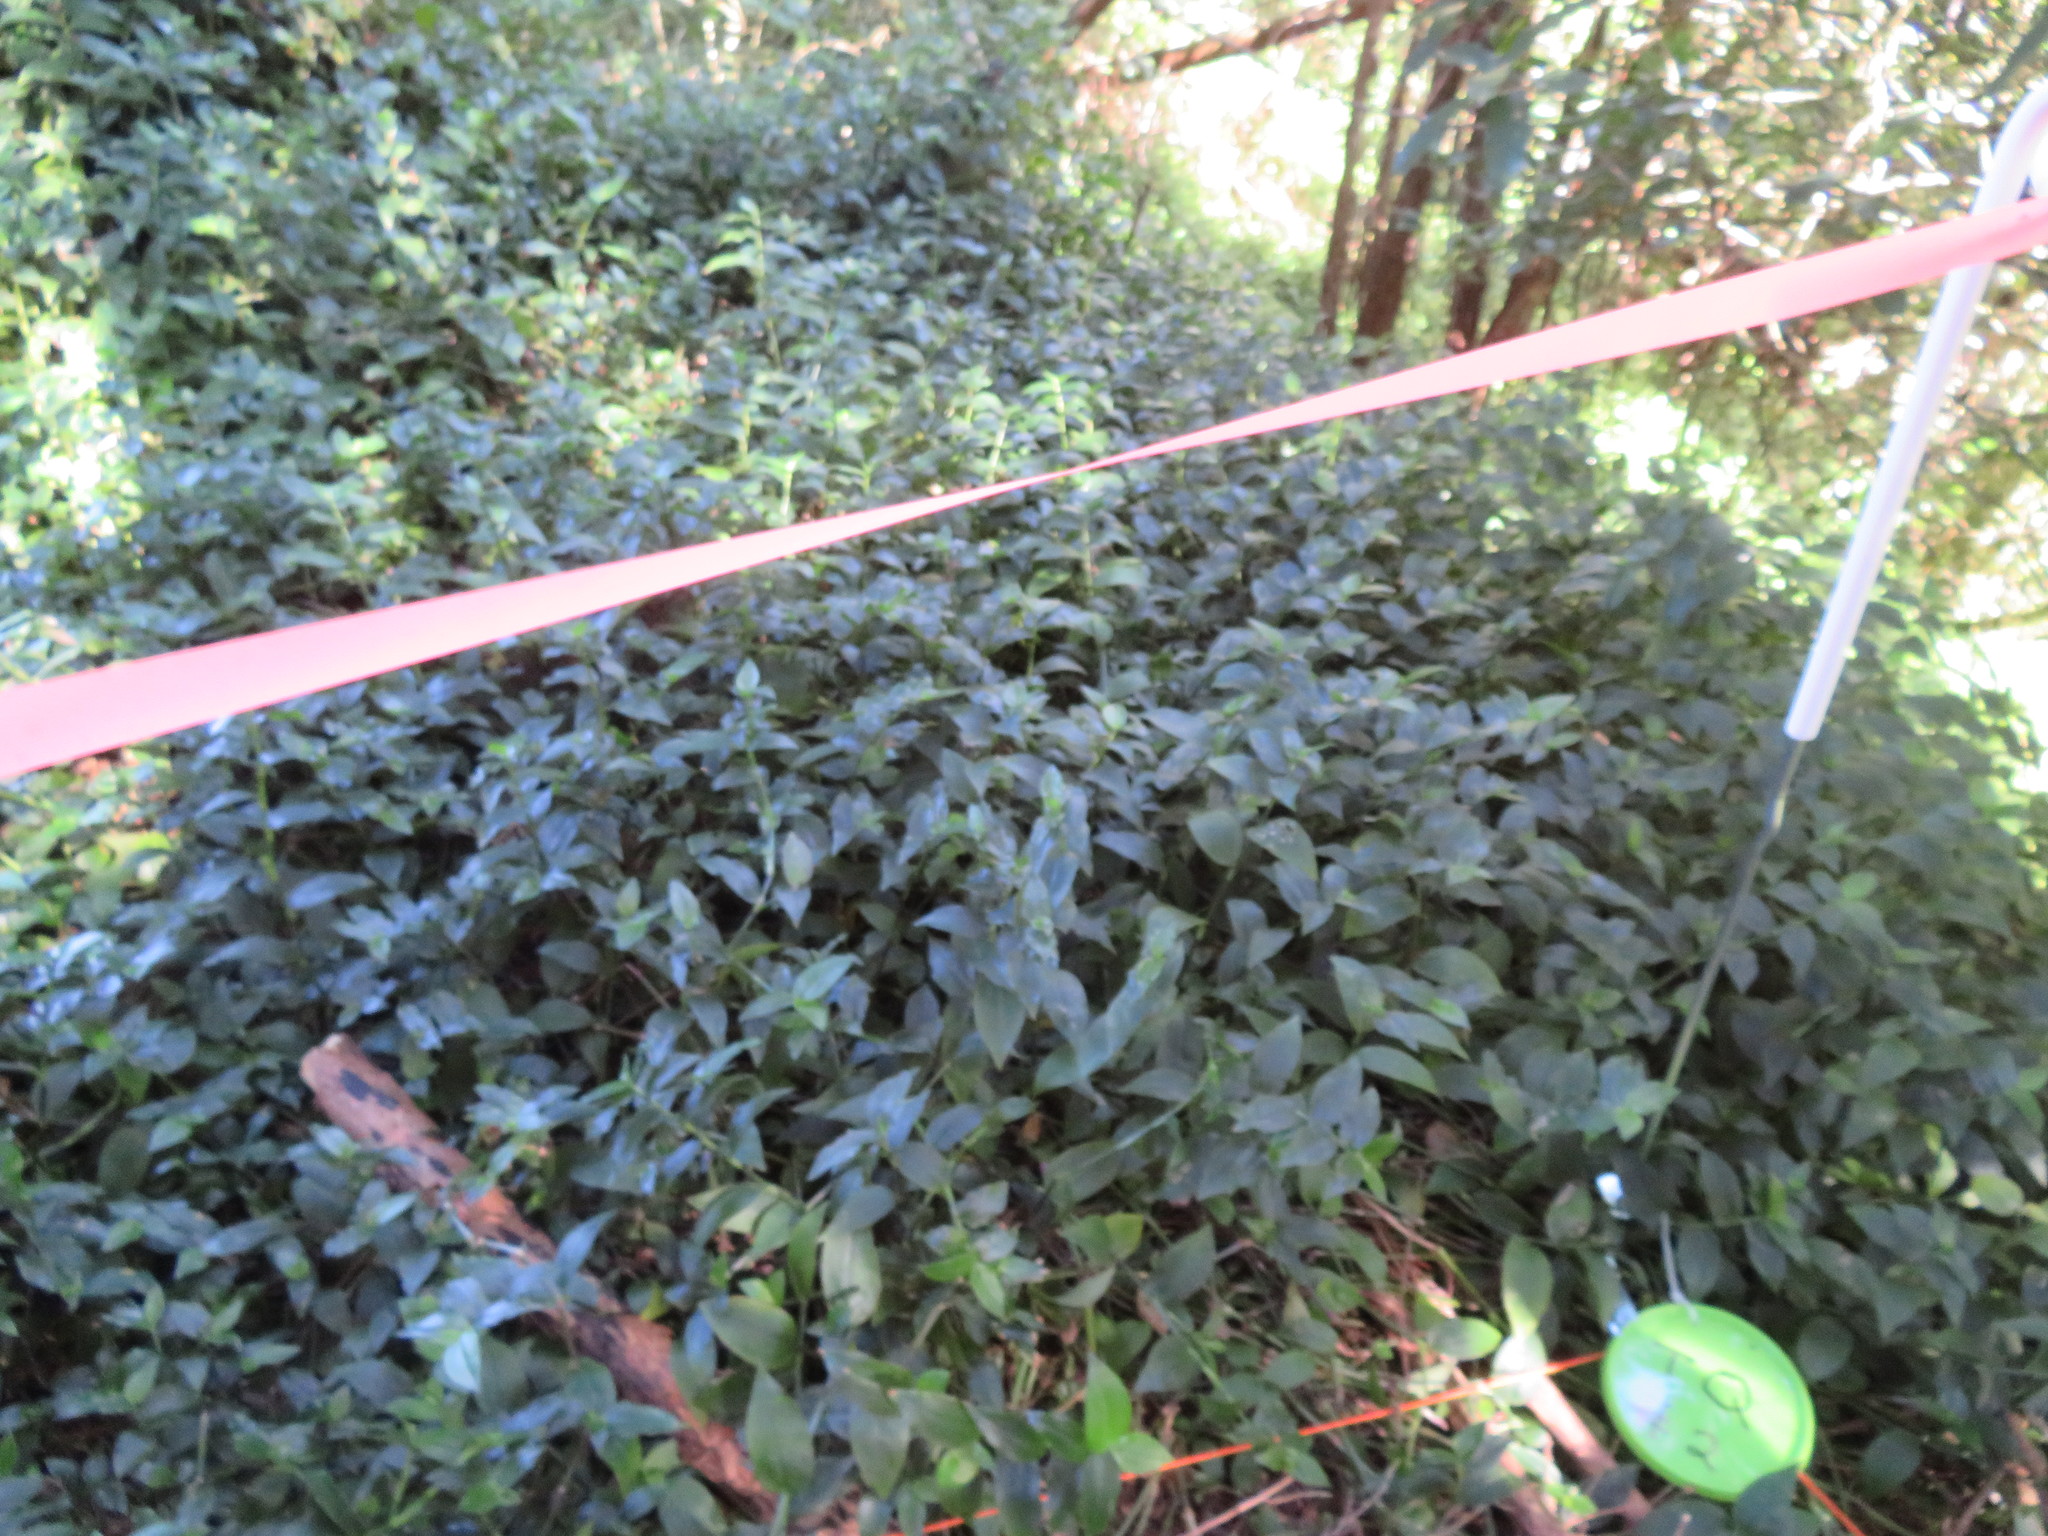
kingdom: Plantae
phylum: Tracheophyta
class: Liliopsida
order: Commelinales
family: Commelinaceae
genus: Tradescantia
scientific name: Tradescantia fluminensis
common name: Wandering-jew
